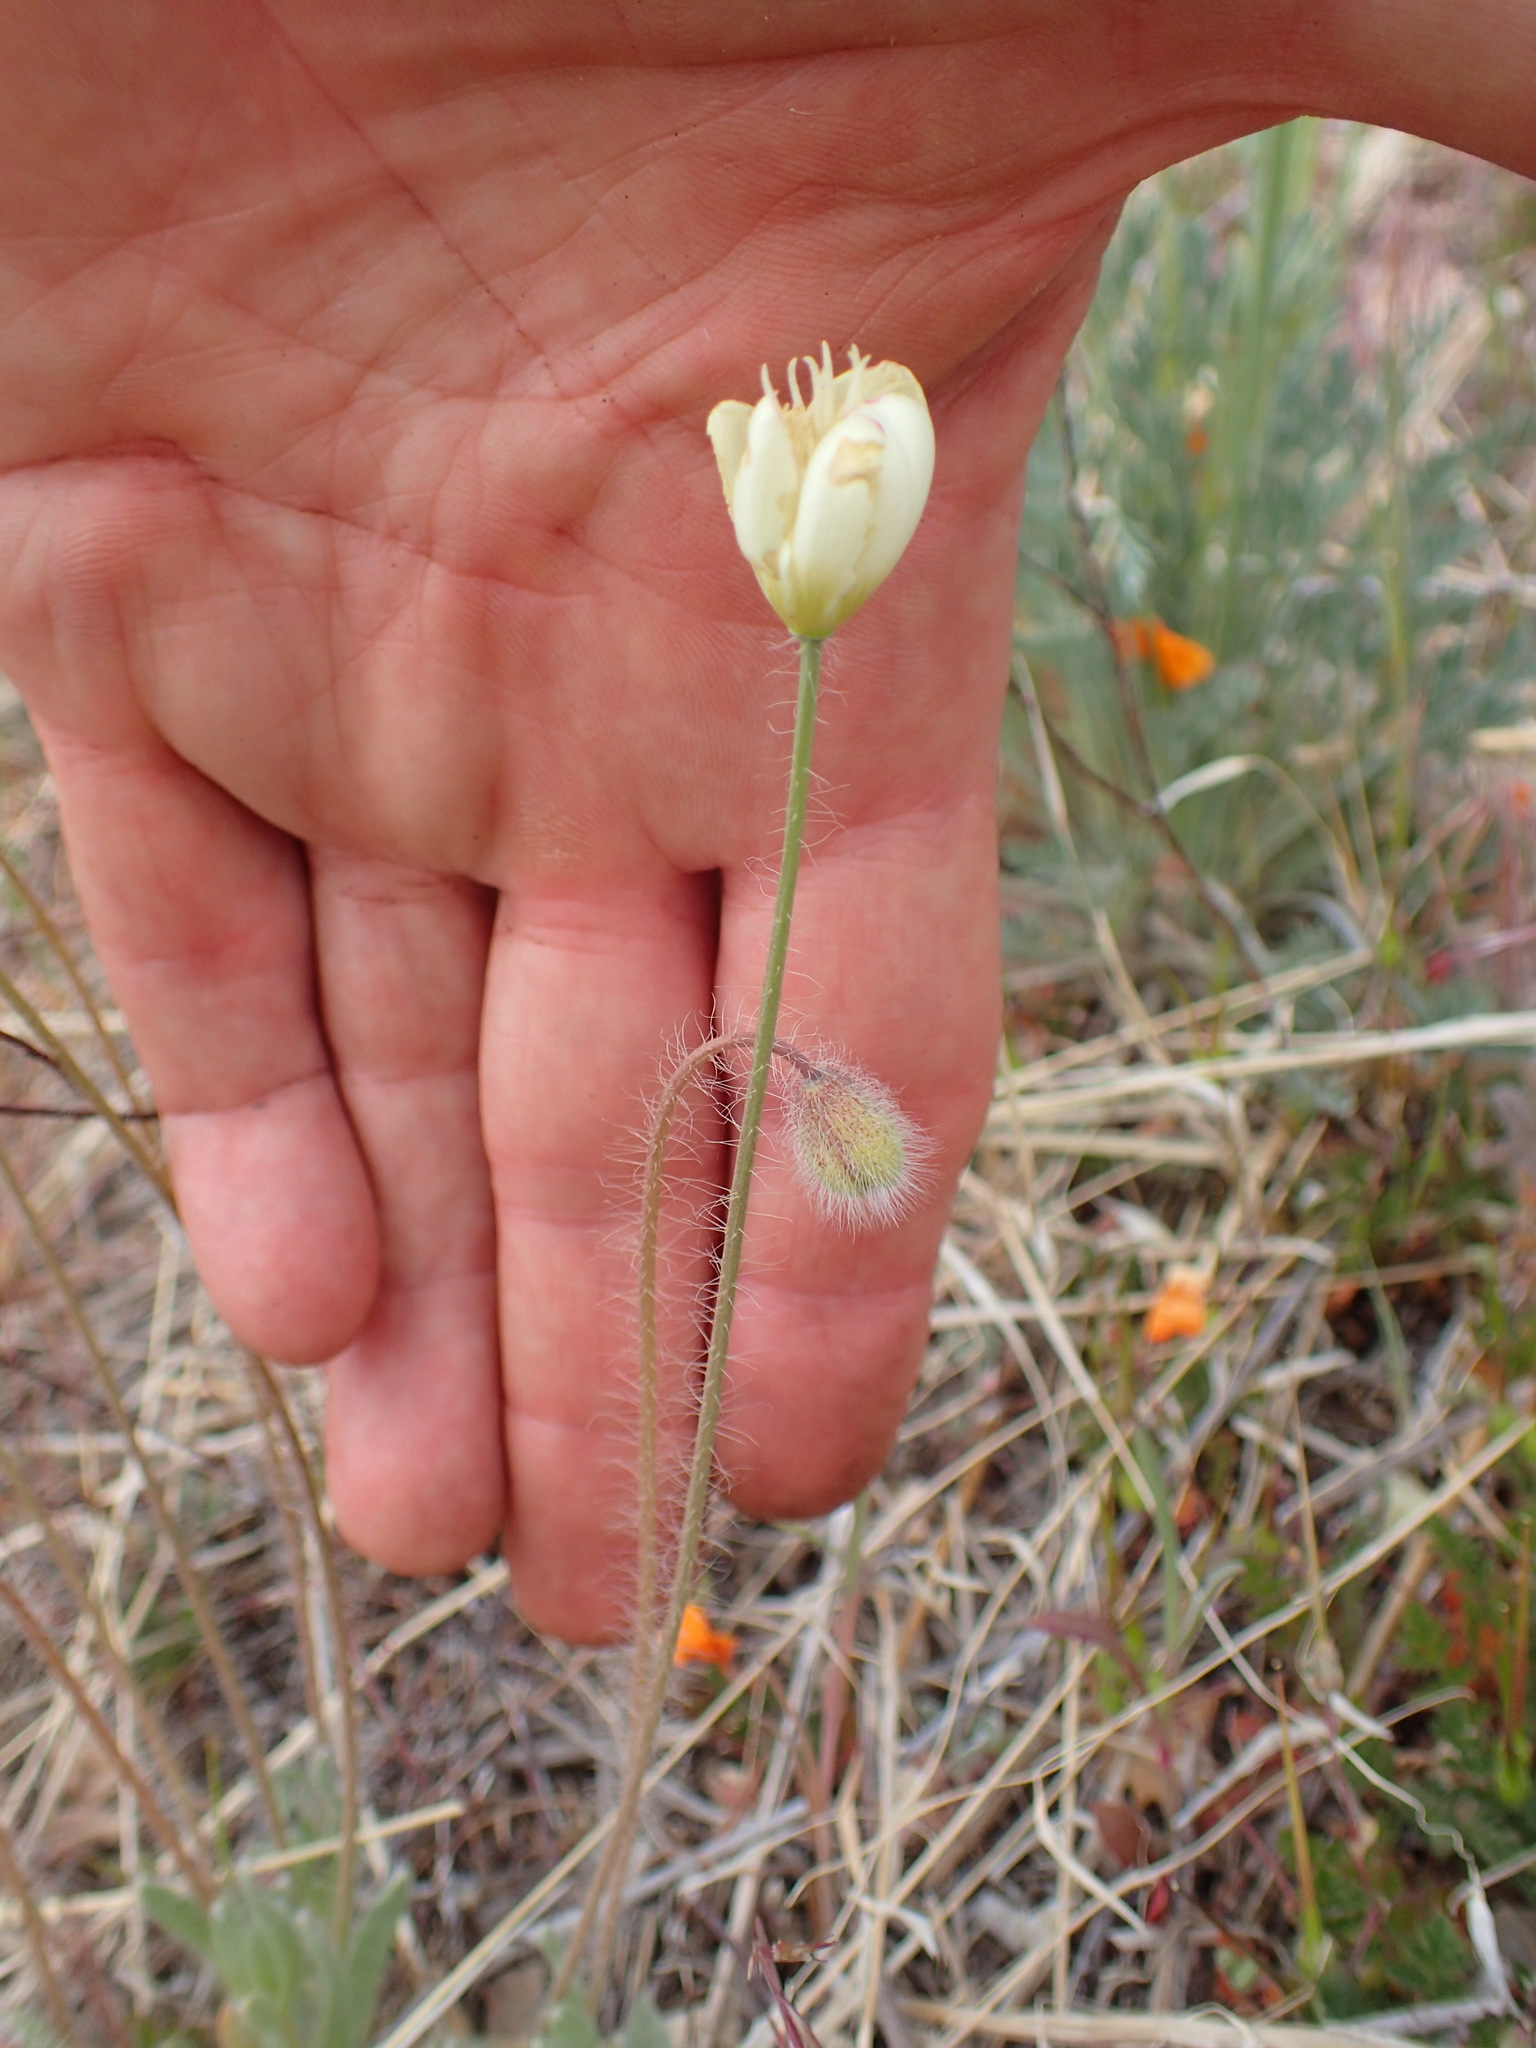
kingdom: Plantae
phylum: Tracheophyta
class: Magnoliopsida
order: Ranunculales
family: Papaveraceae
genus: Platystemon
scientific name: Platystemon californicus
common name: Cream-cups
